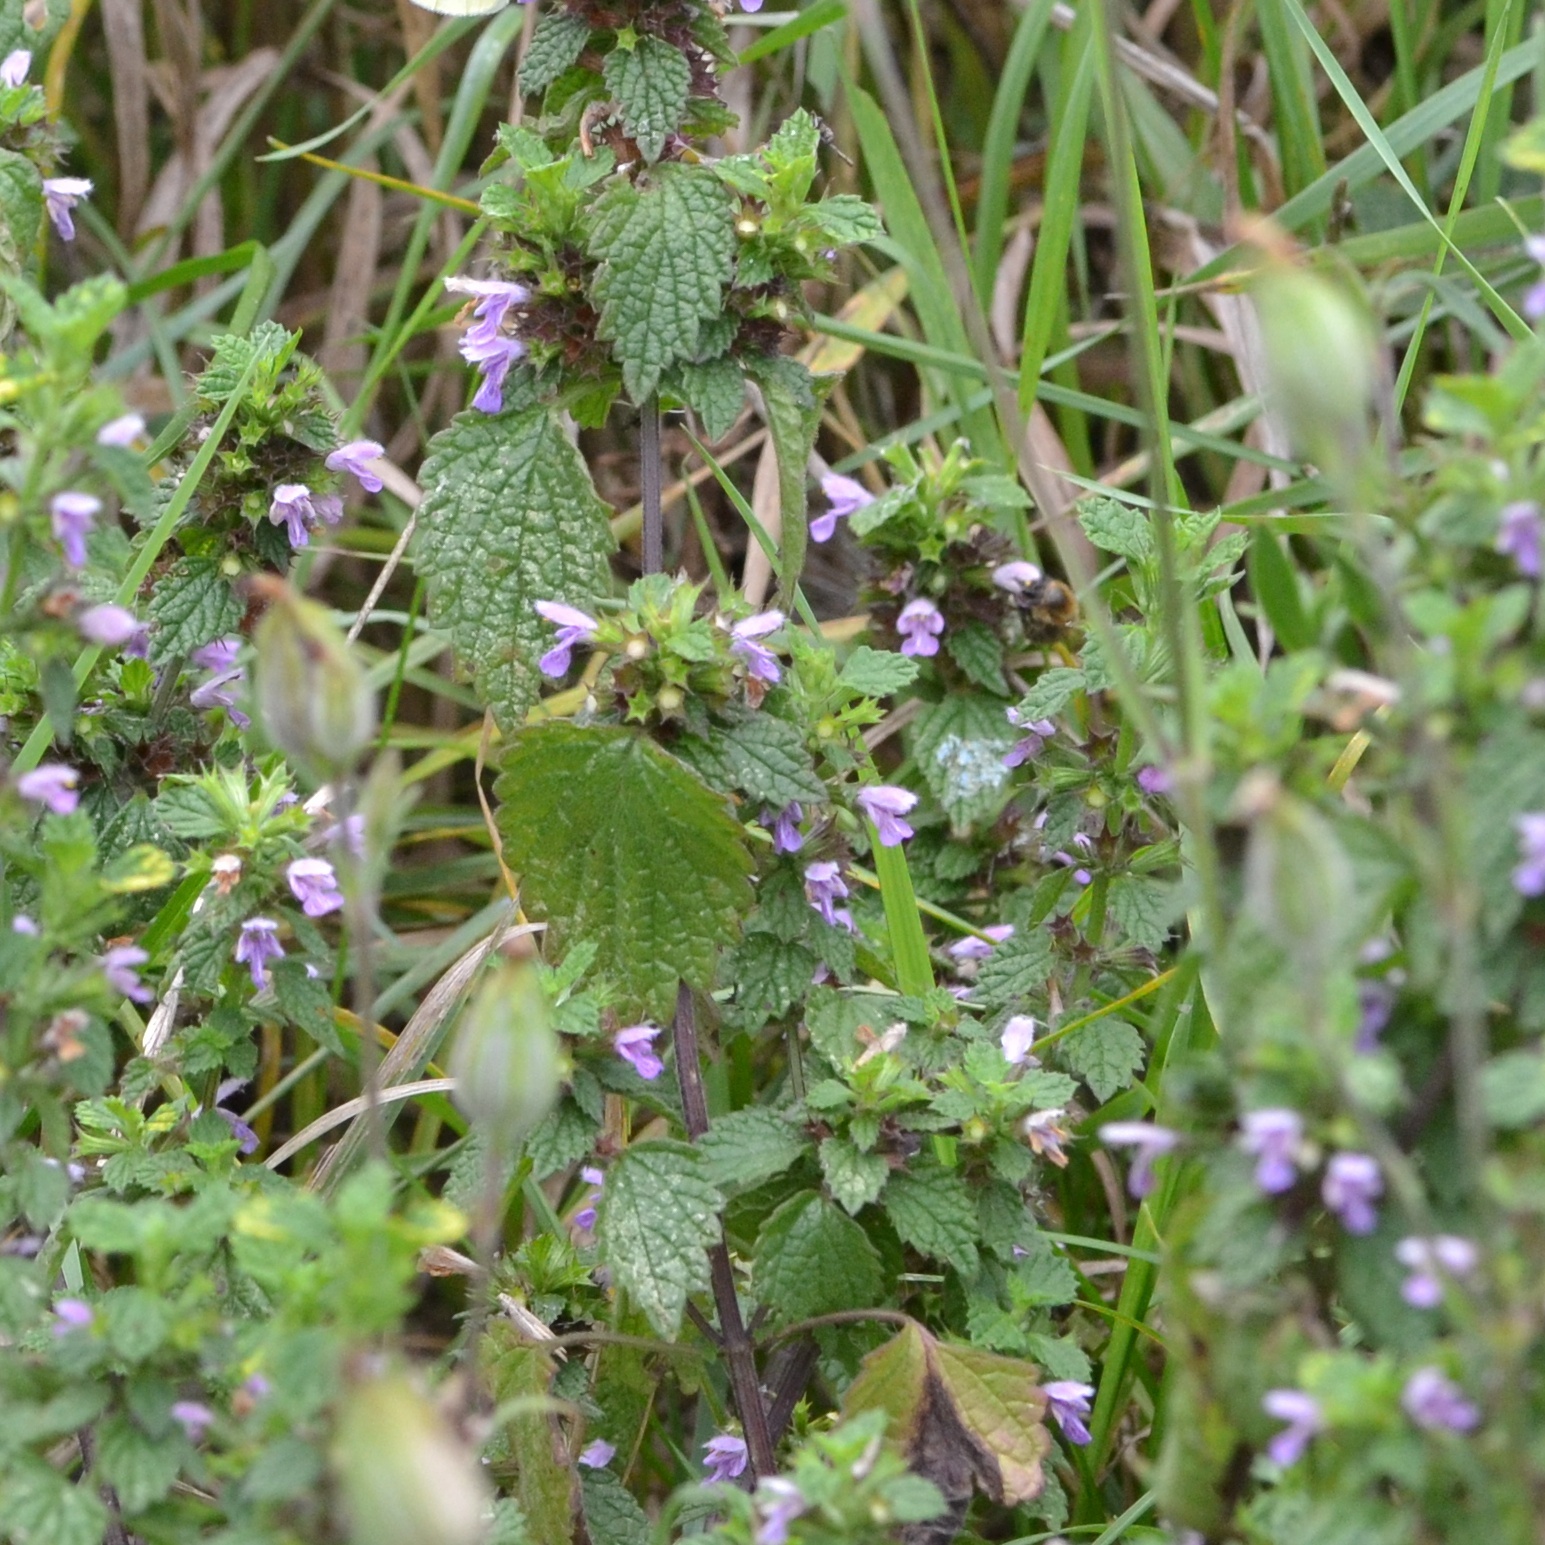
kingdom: Plantae
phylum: Tracheophyta
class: Magnoliopsida
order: Lamiales
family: Lamiaceae
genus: Ballota
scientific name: Ballota nigra
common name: Black horehound
